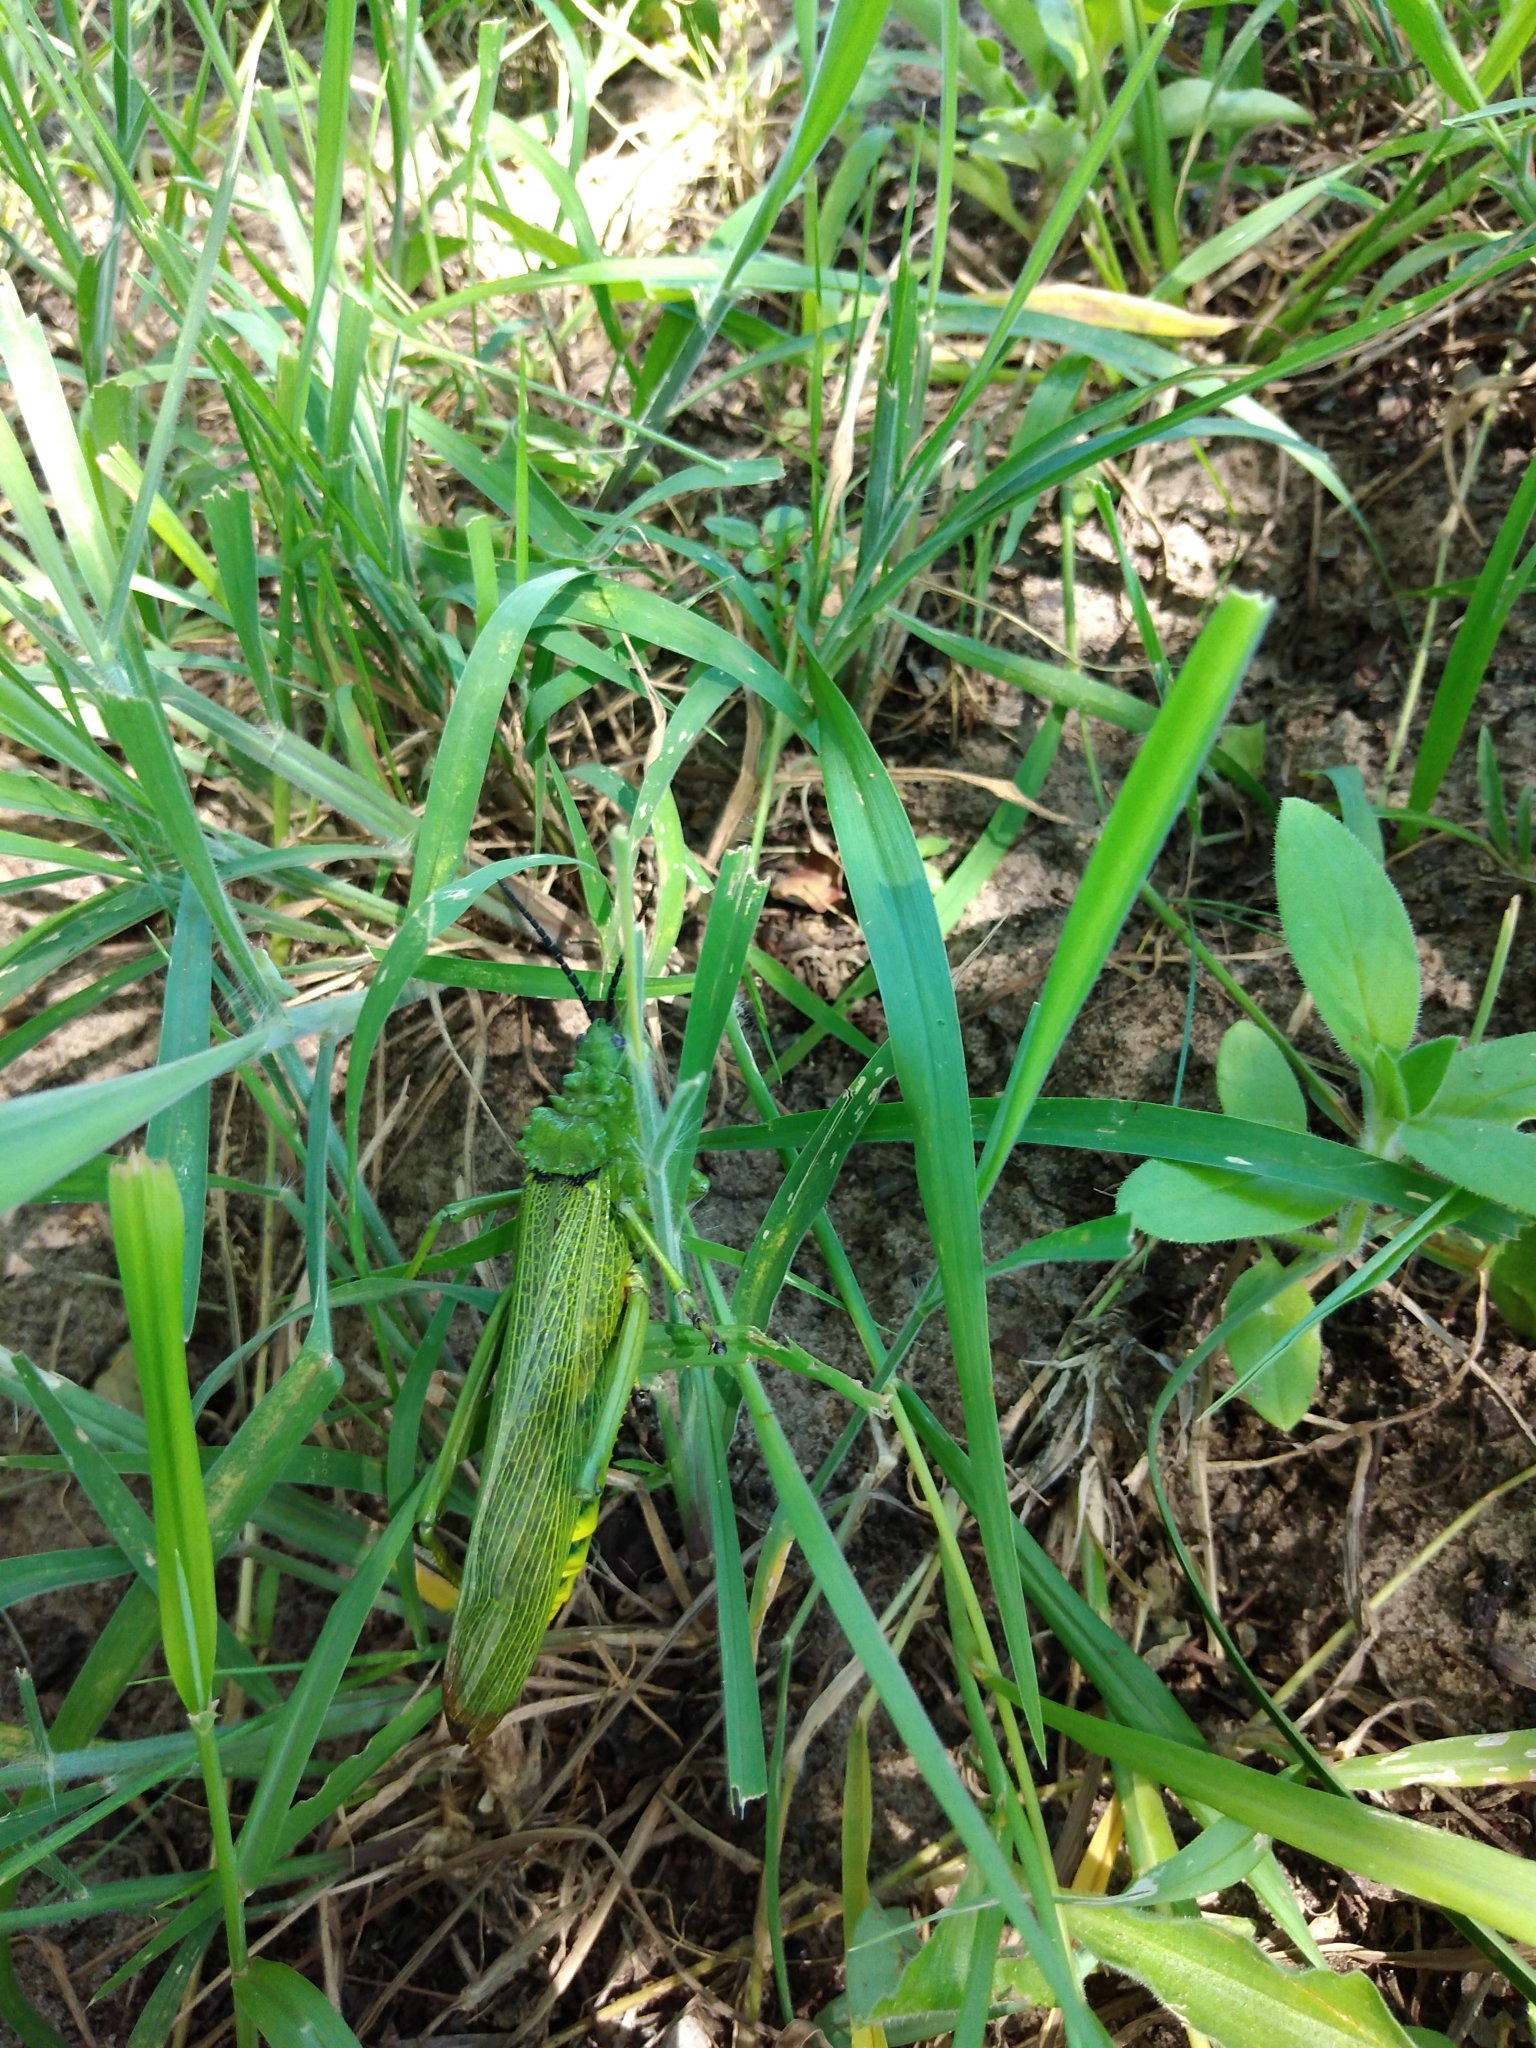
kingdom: Animalia
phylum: Arthropoda
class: Insecta
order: Orthoptera
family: Pyrgomorphidae
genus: Phymateus
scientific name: Phymateus viridipes
